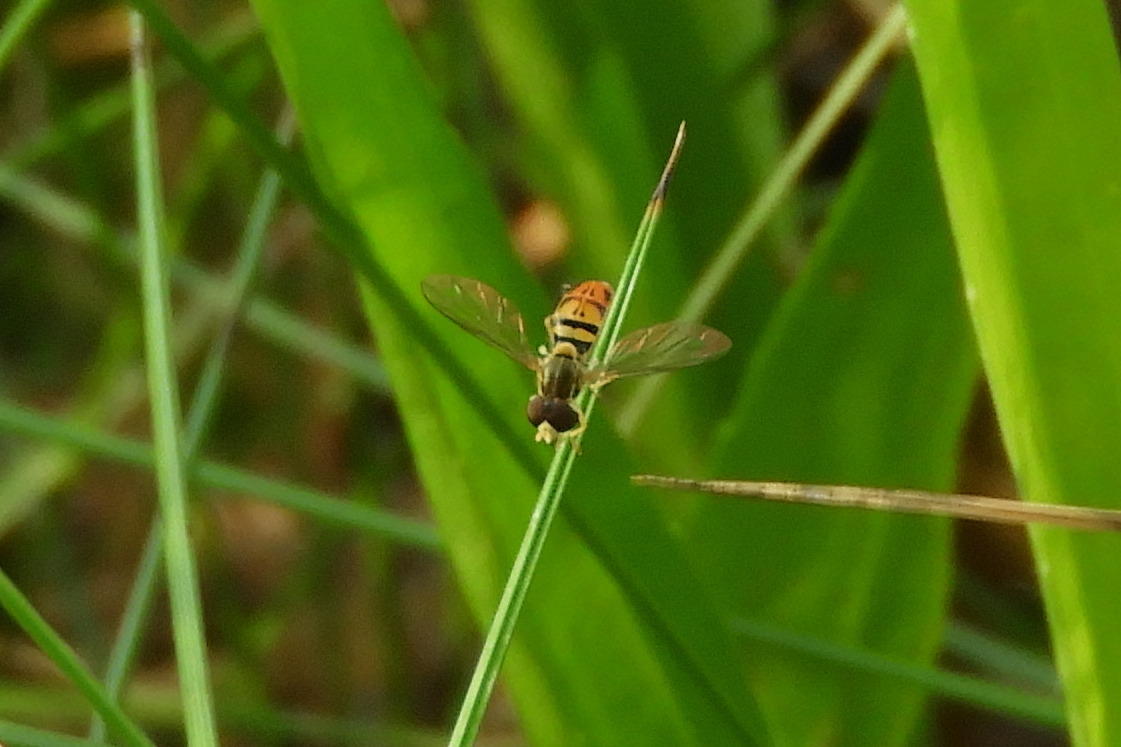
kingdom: Animalia
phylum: Arthropoda
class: Insecta
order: Diptera
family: Syrphidae
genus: Toxomerus
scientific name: Toxomerus marginatus
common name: Syrphid fly
